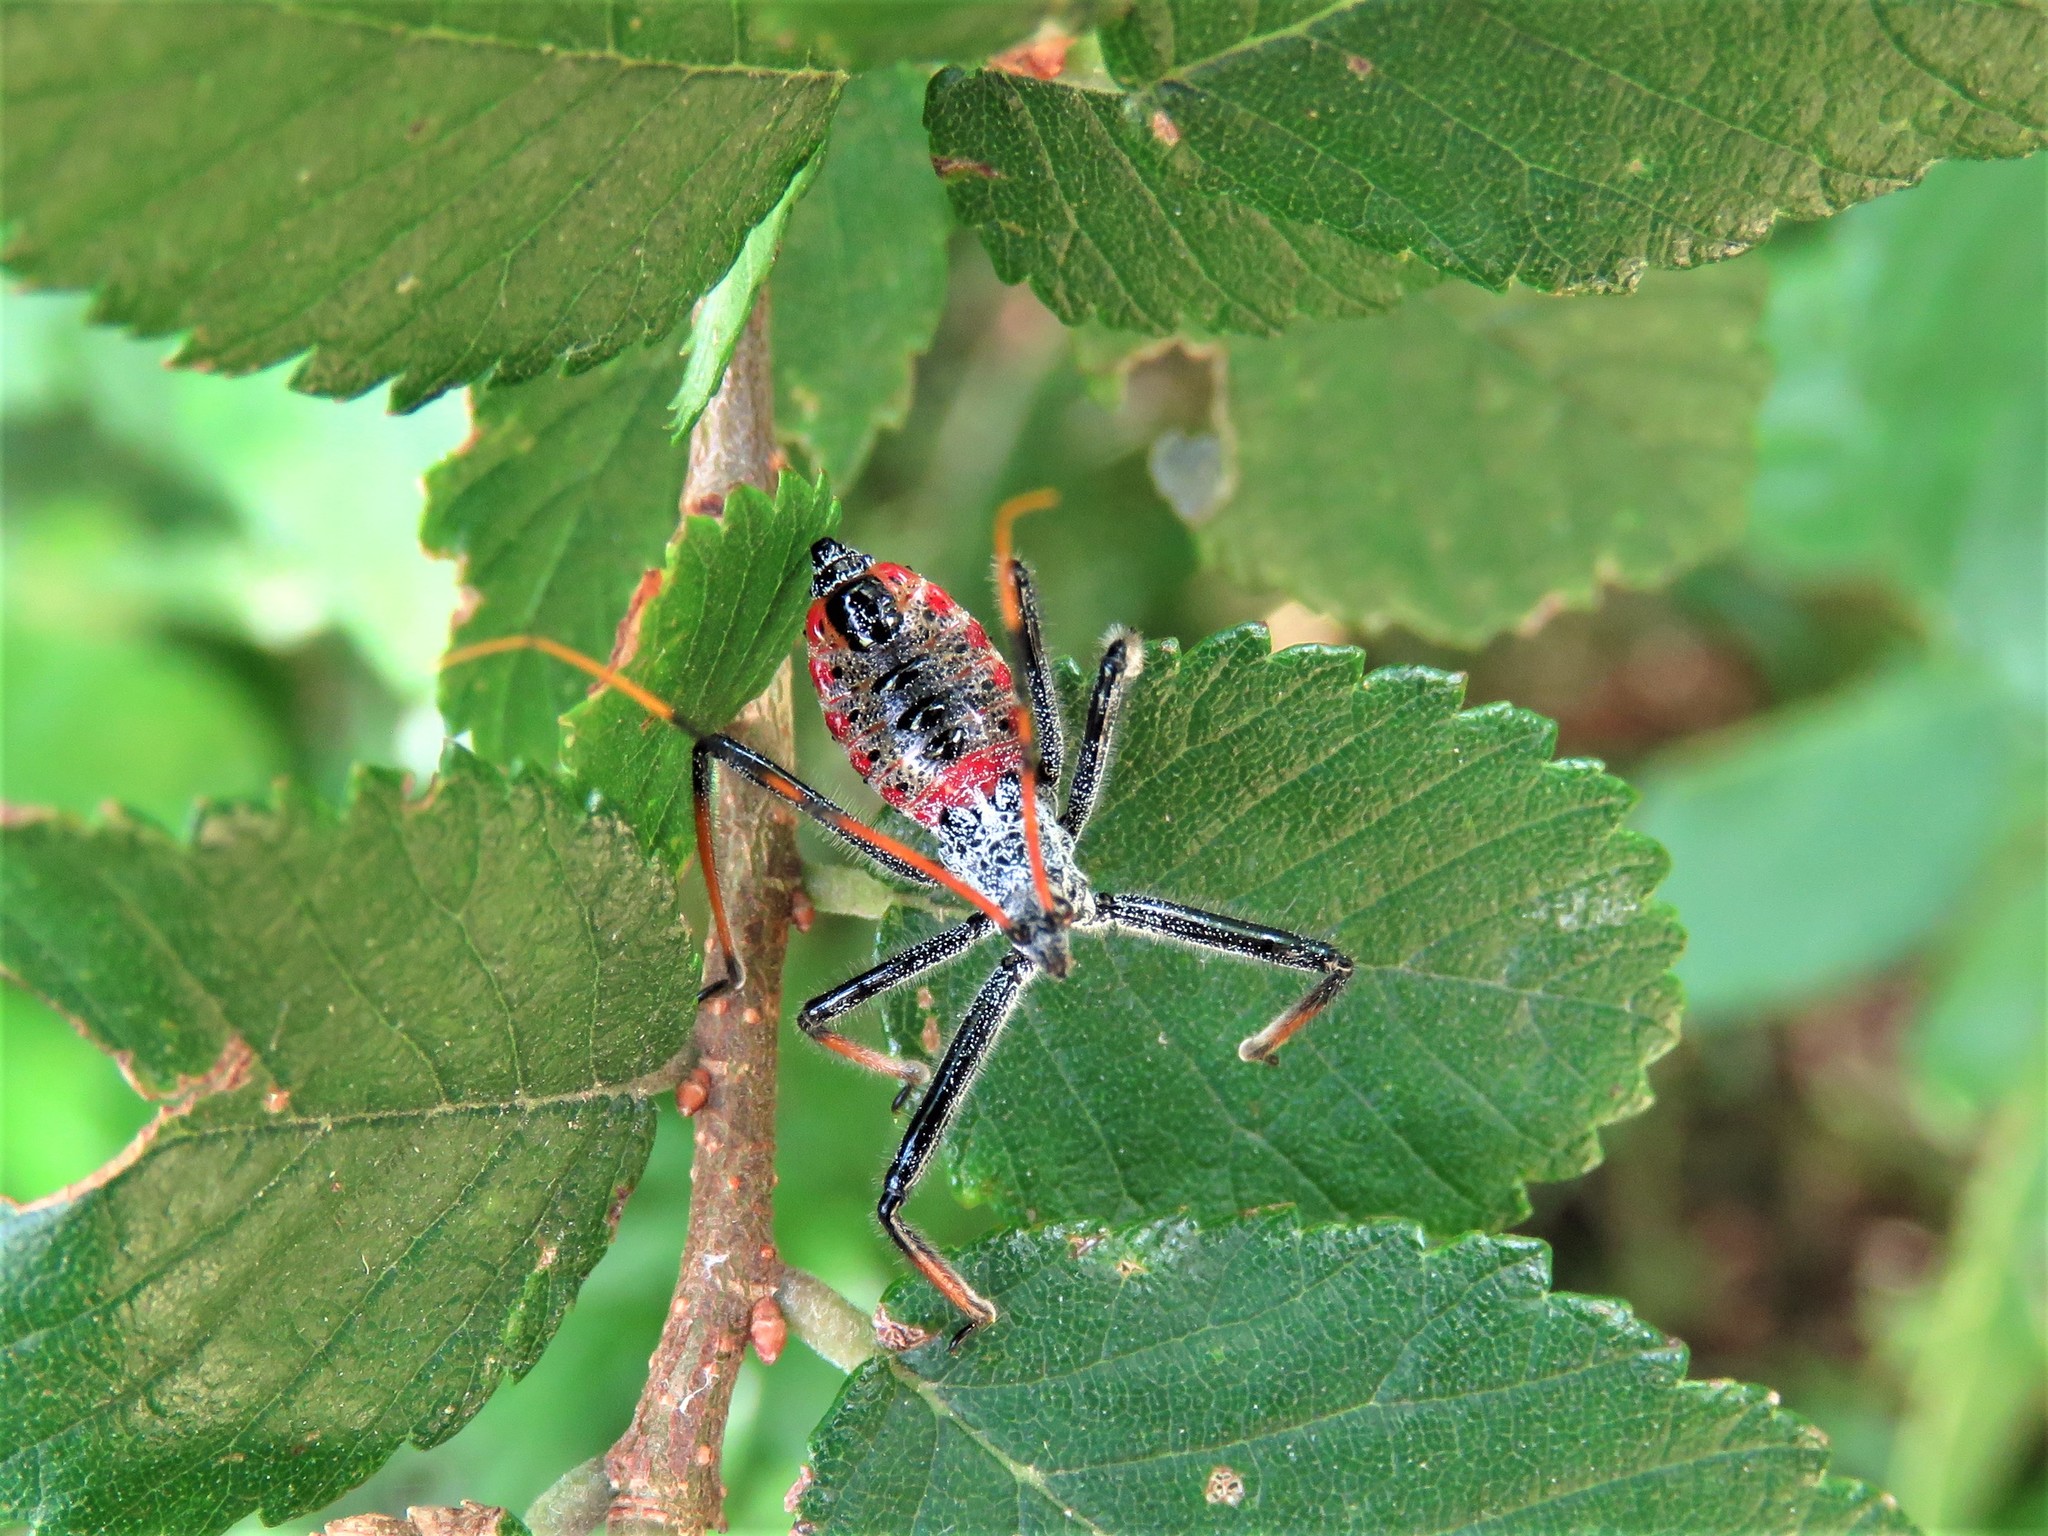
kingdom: Animalia
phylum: Arthropoda
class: Insecta
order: Hemiptera
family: Reduviidae
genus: Arilus
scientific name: Arilus cristatus
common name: North american wheel bug
